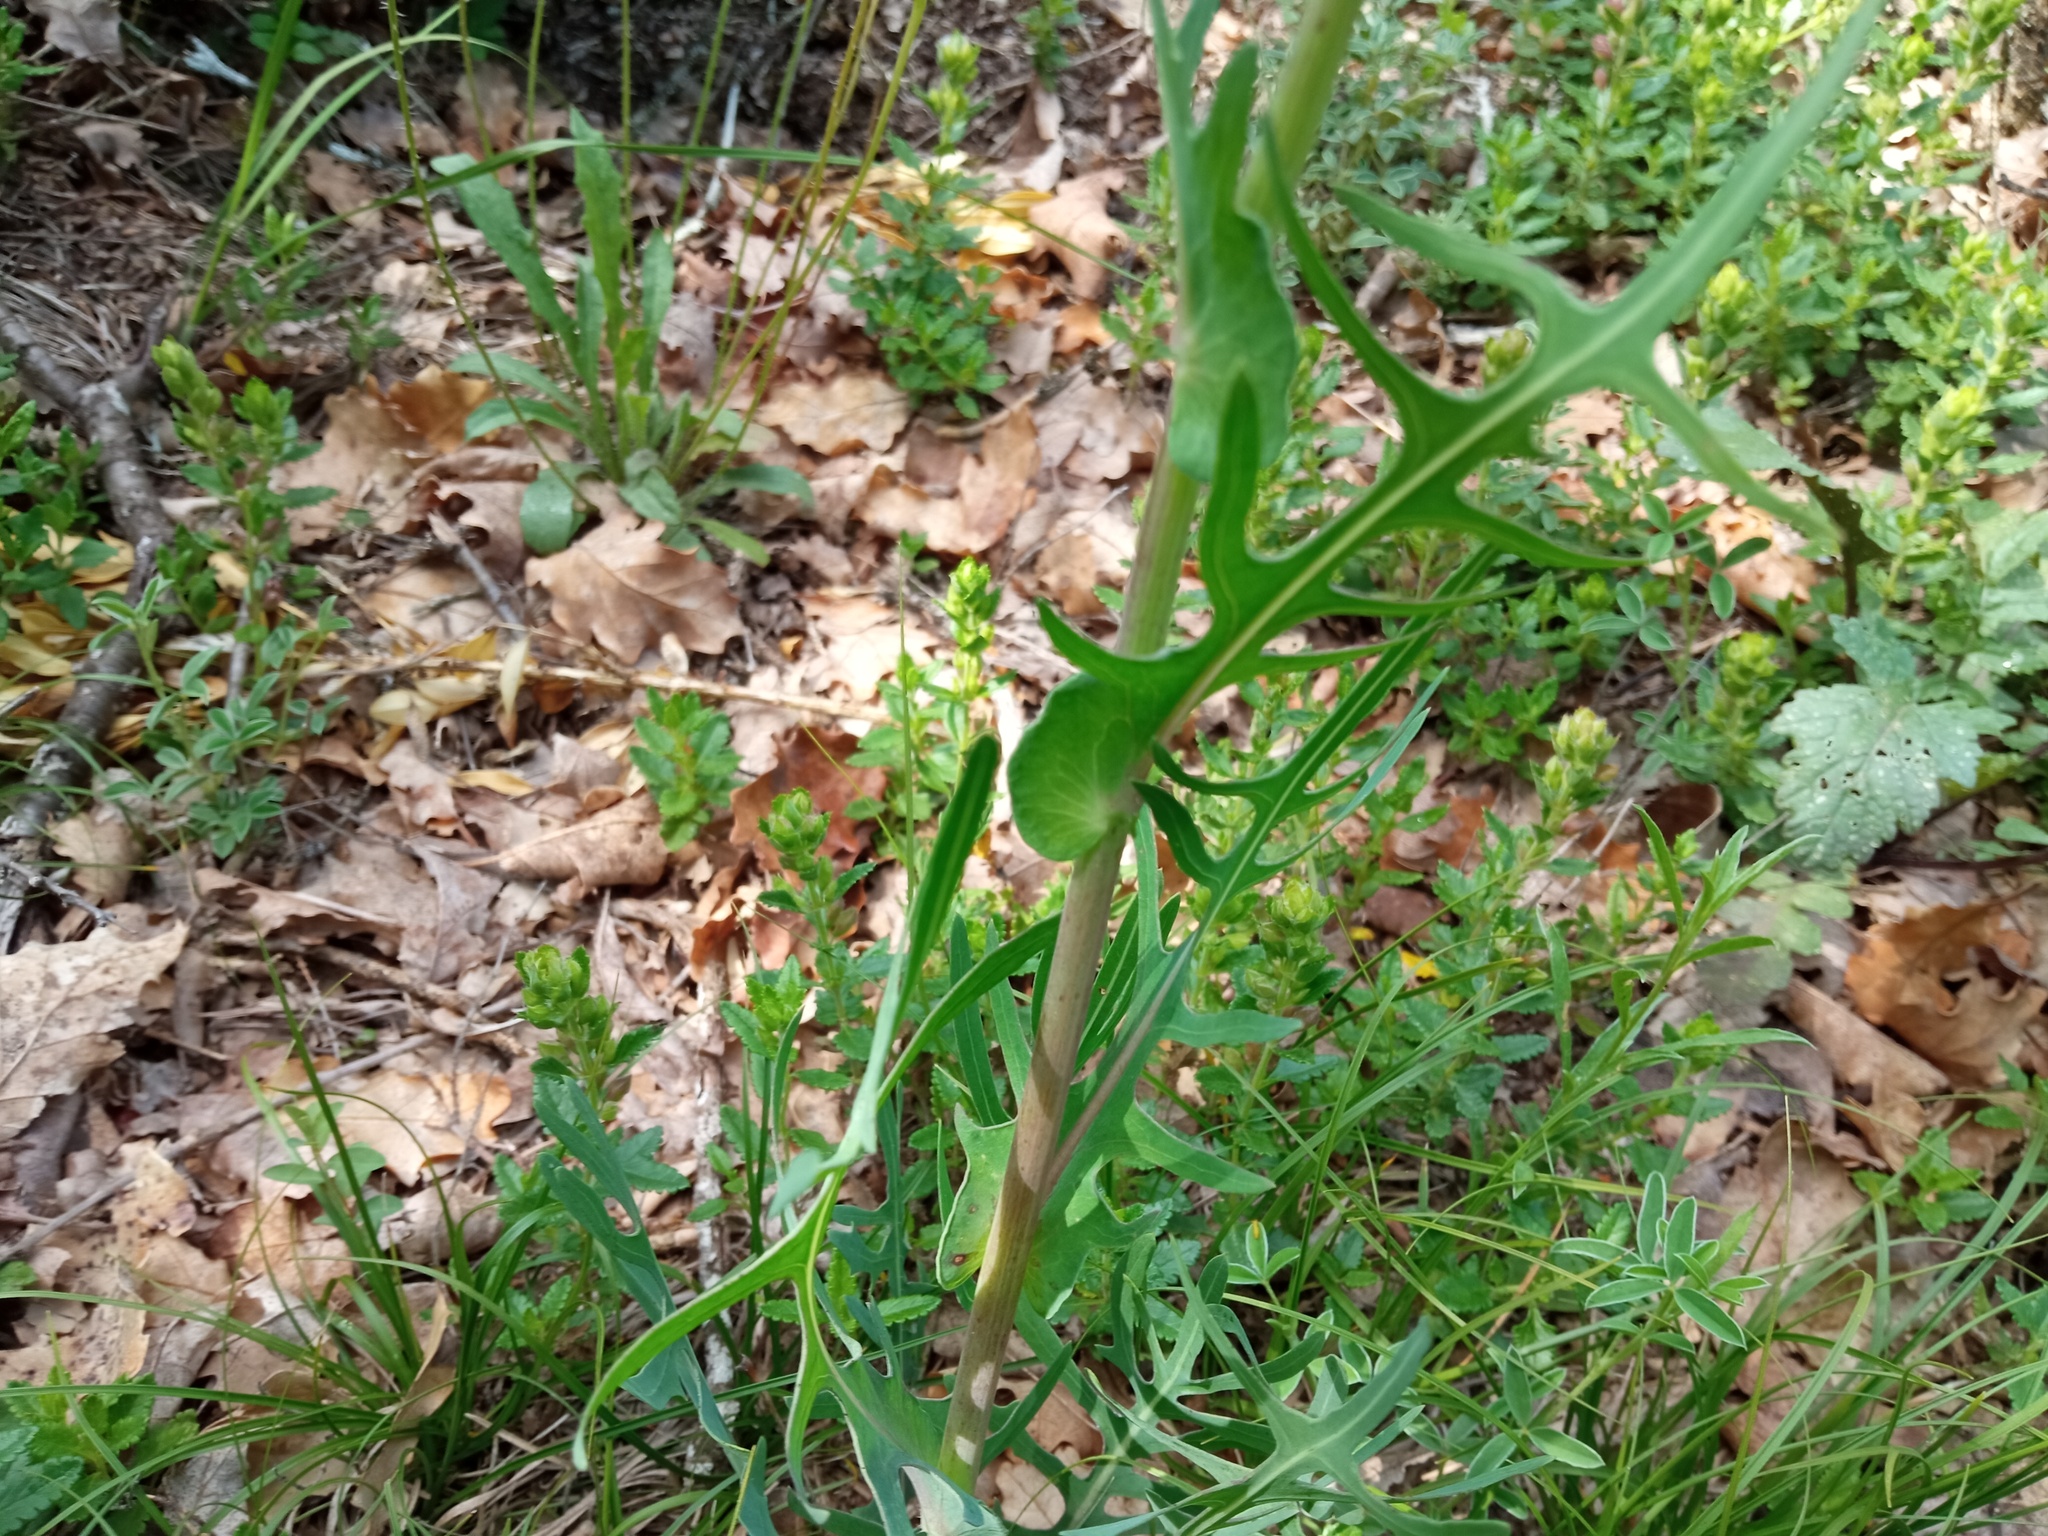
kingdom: Plantae
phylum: Tracheophyta
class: Magnoliopsida
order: Asterales
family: Asteraceae
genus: Lactuca
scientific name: Lactuca perennis
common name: Mountain lettuce
